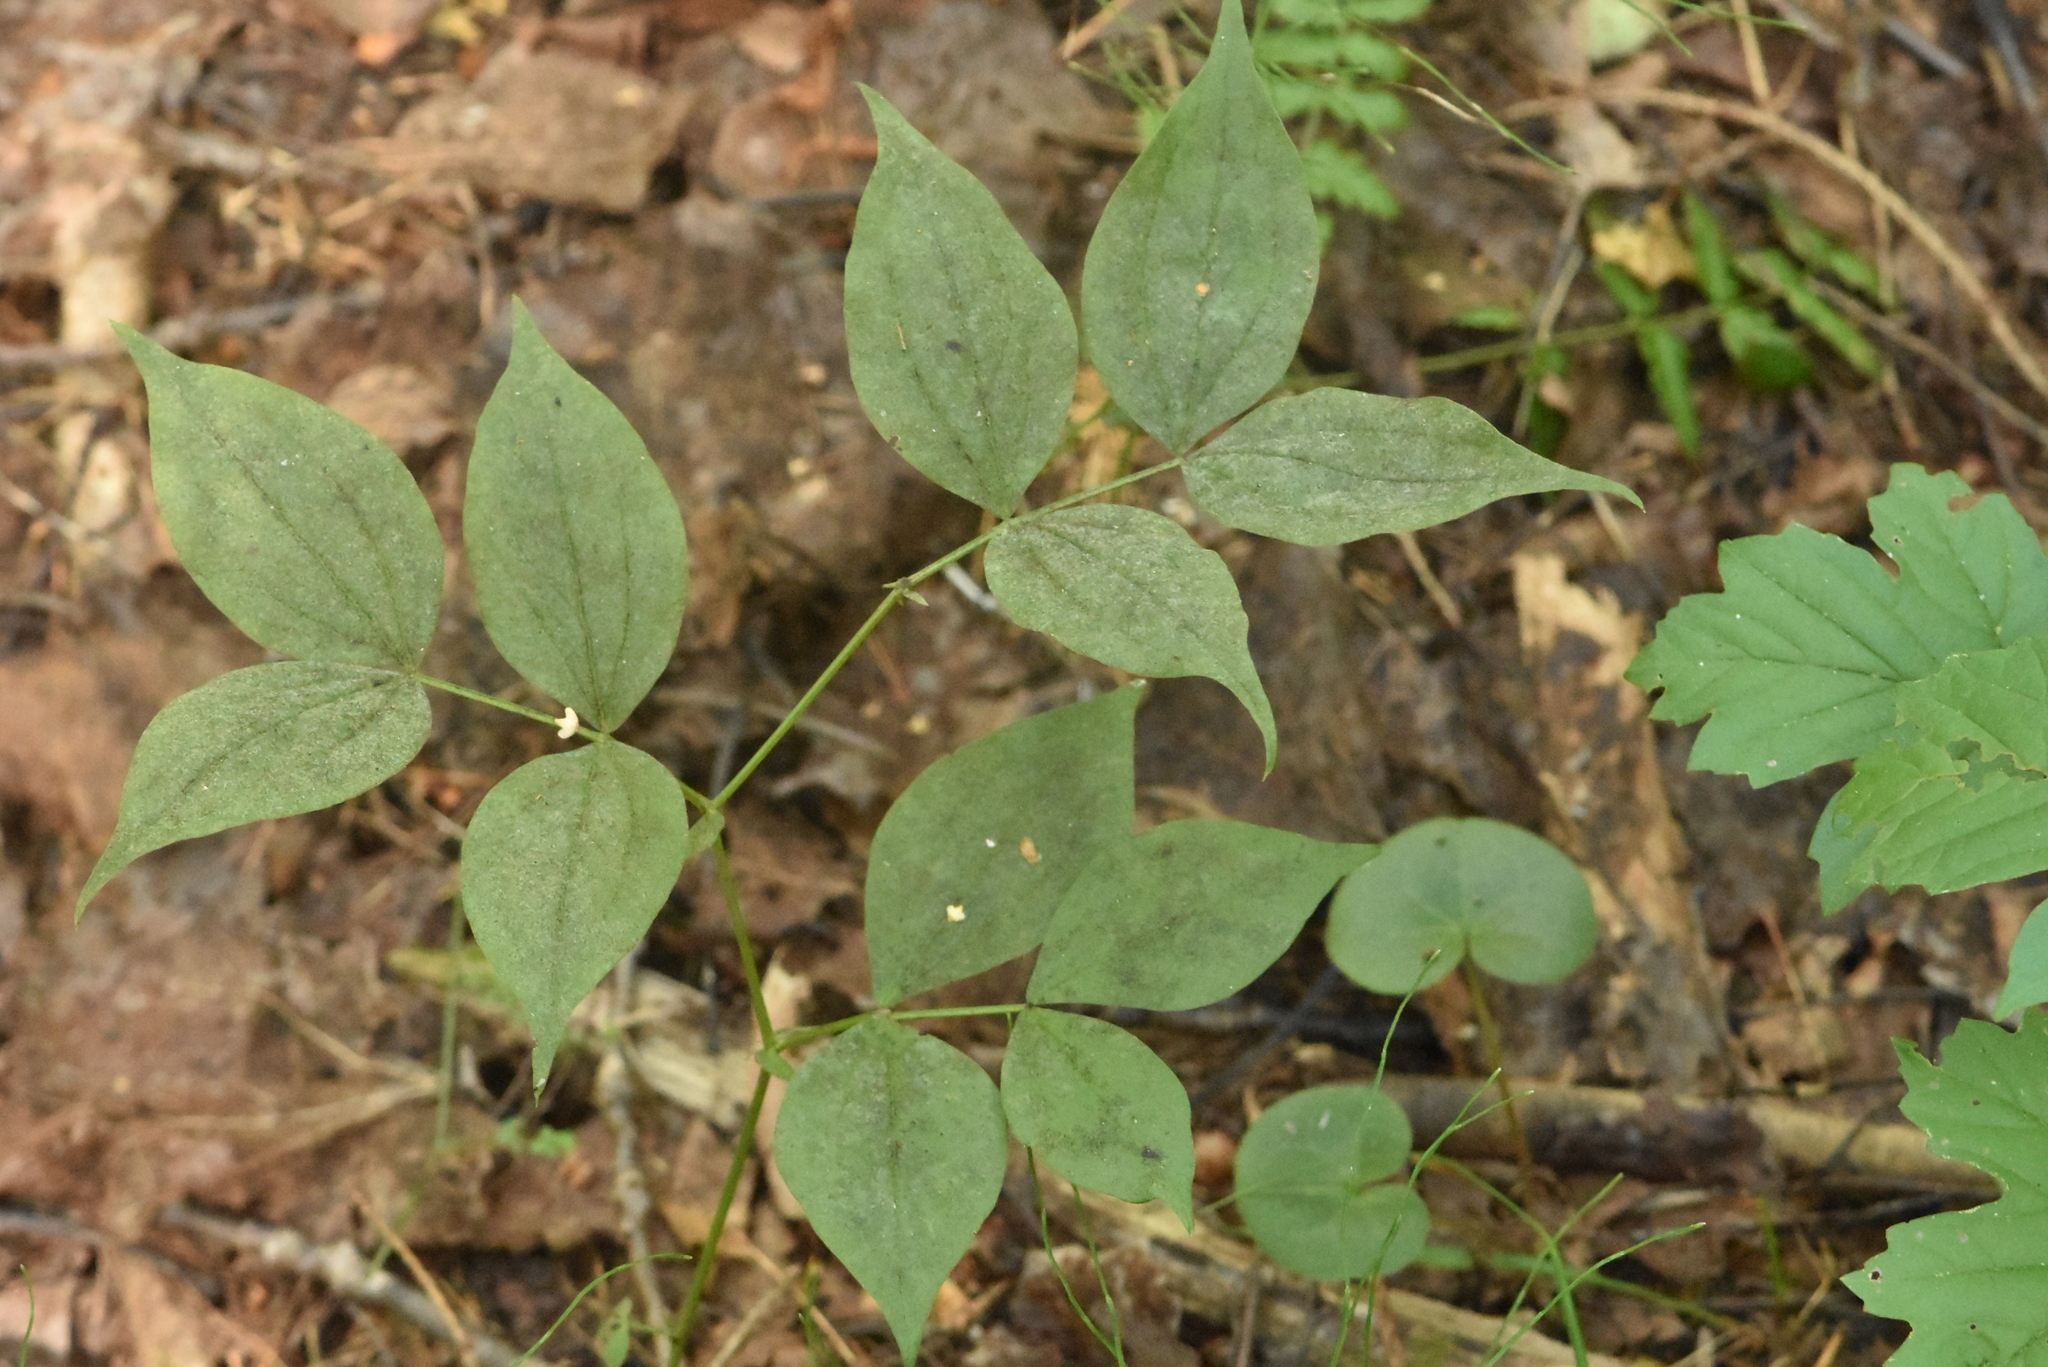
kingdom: Plantae
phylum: Tracheophyta
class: Magnoliopsida
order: Fabales
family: Fabaceae
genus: Lathyrus
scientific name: Lathyrus vernus
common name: Spring pea
